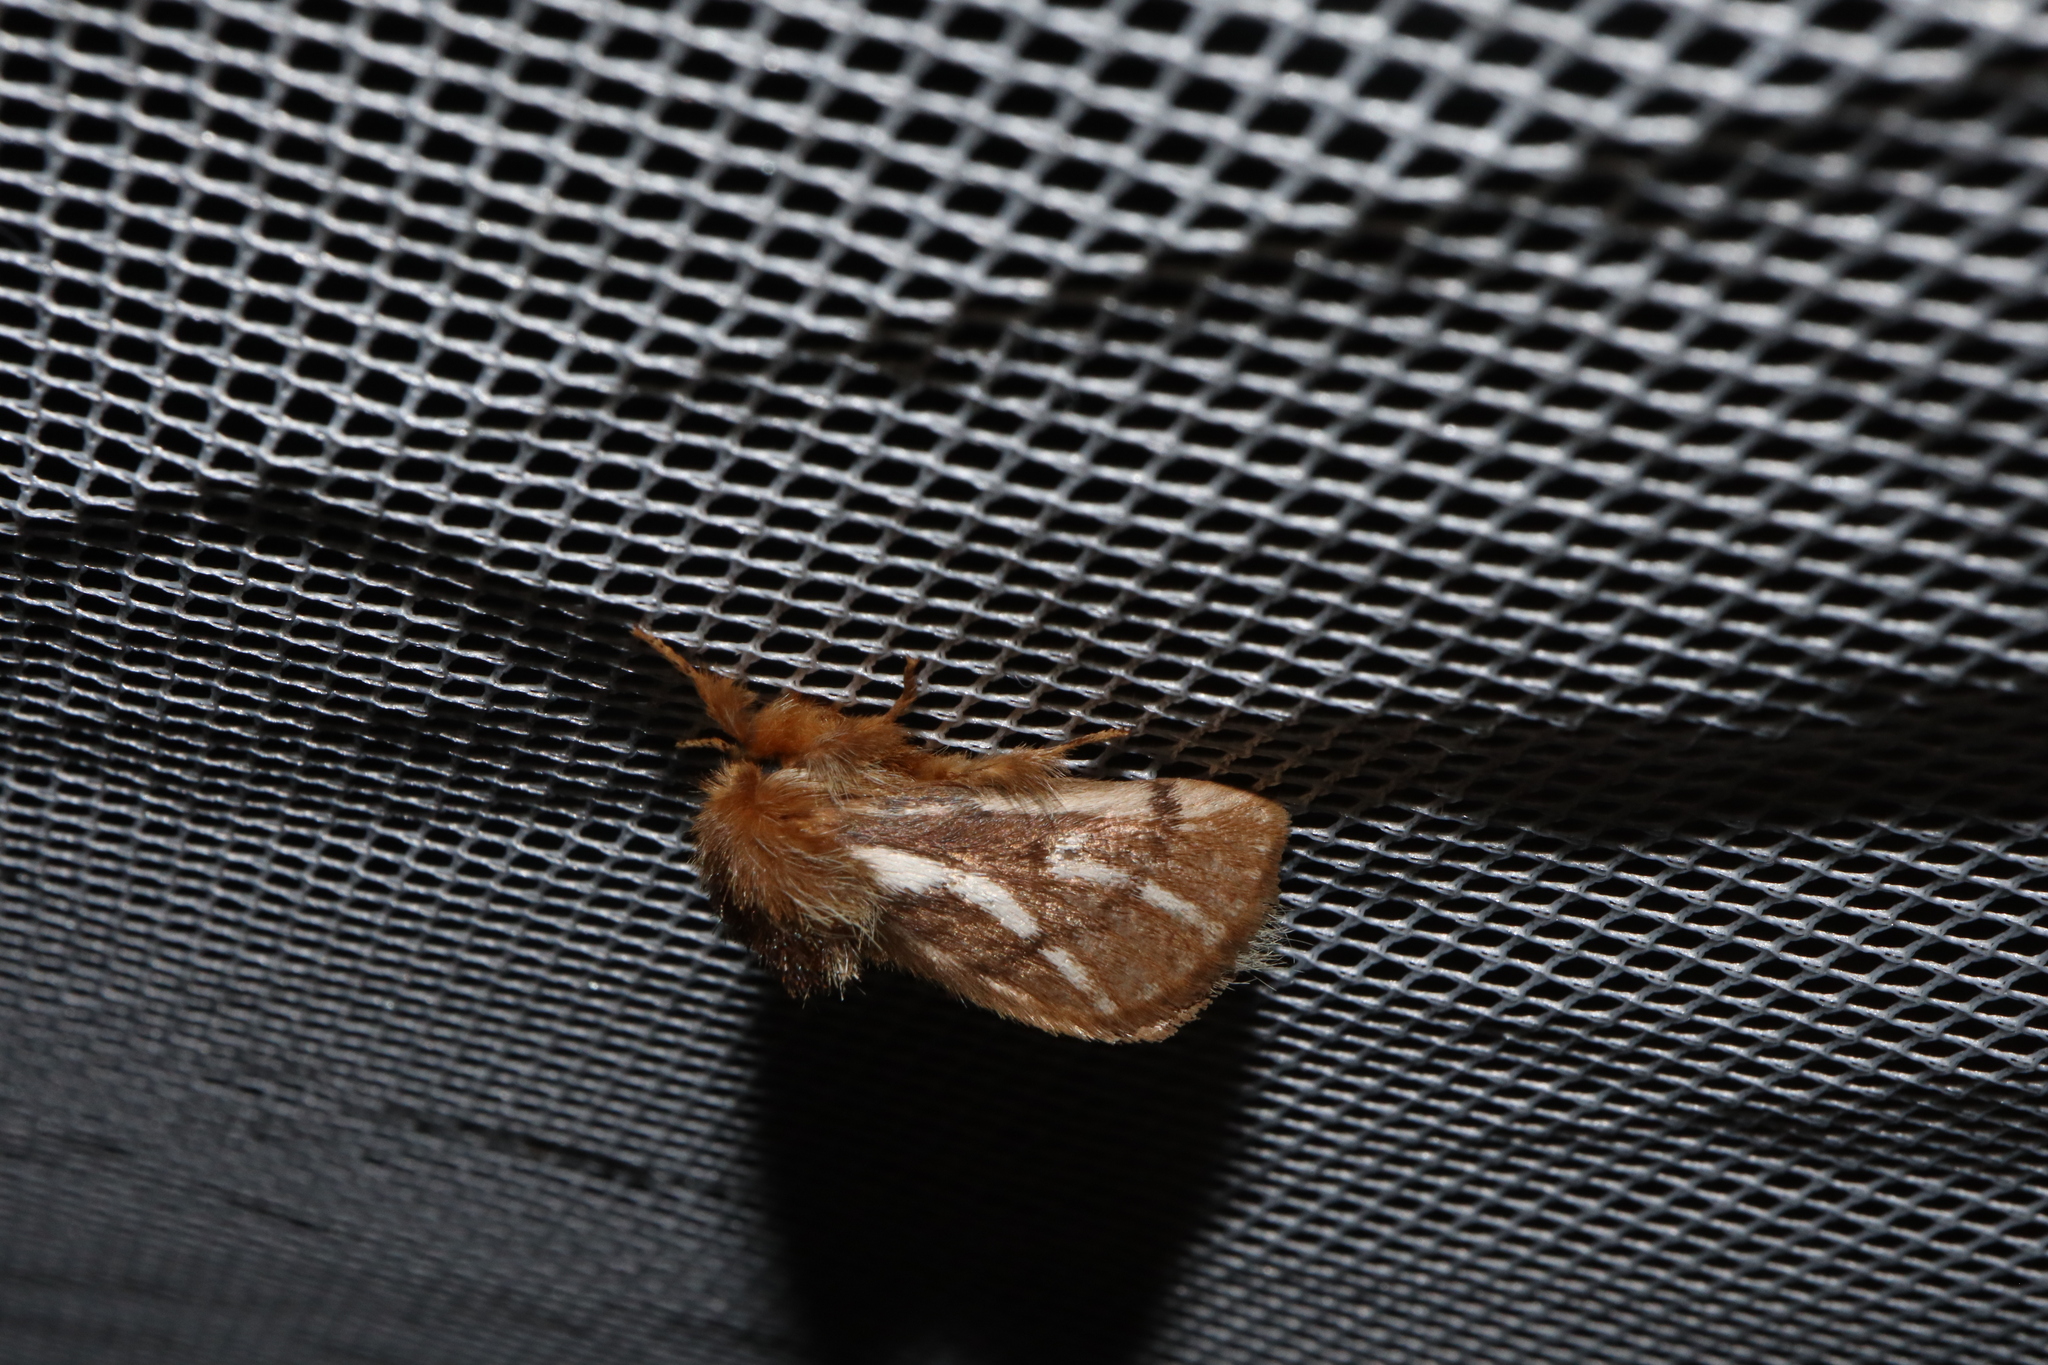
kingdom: Animalia
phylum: Arthropoda
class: Insecta
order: Lepidoptera
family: Notodontidae
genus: Ochrogaster
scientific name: Ochrogaster lunifer
